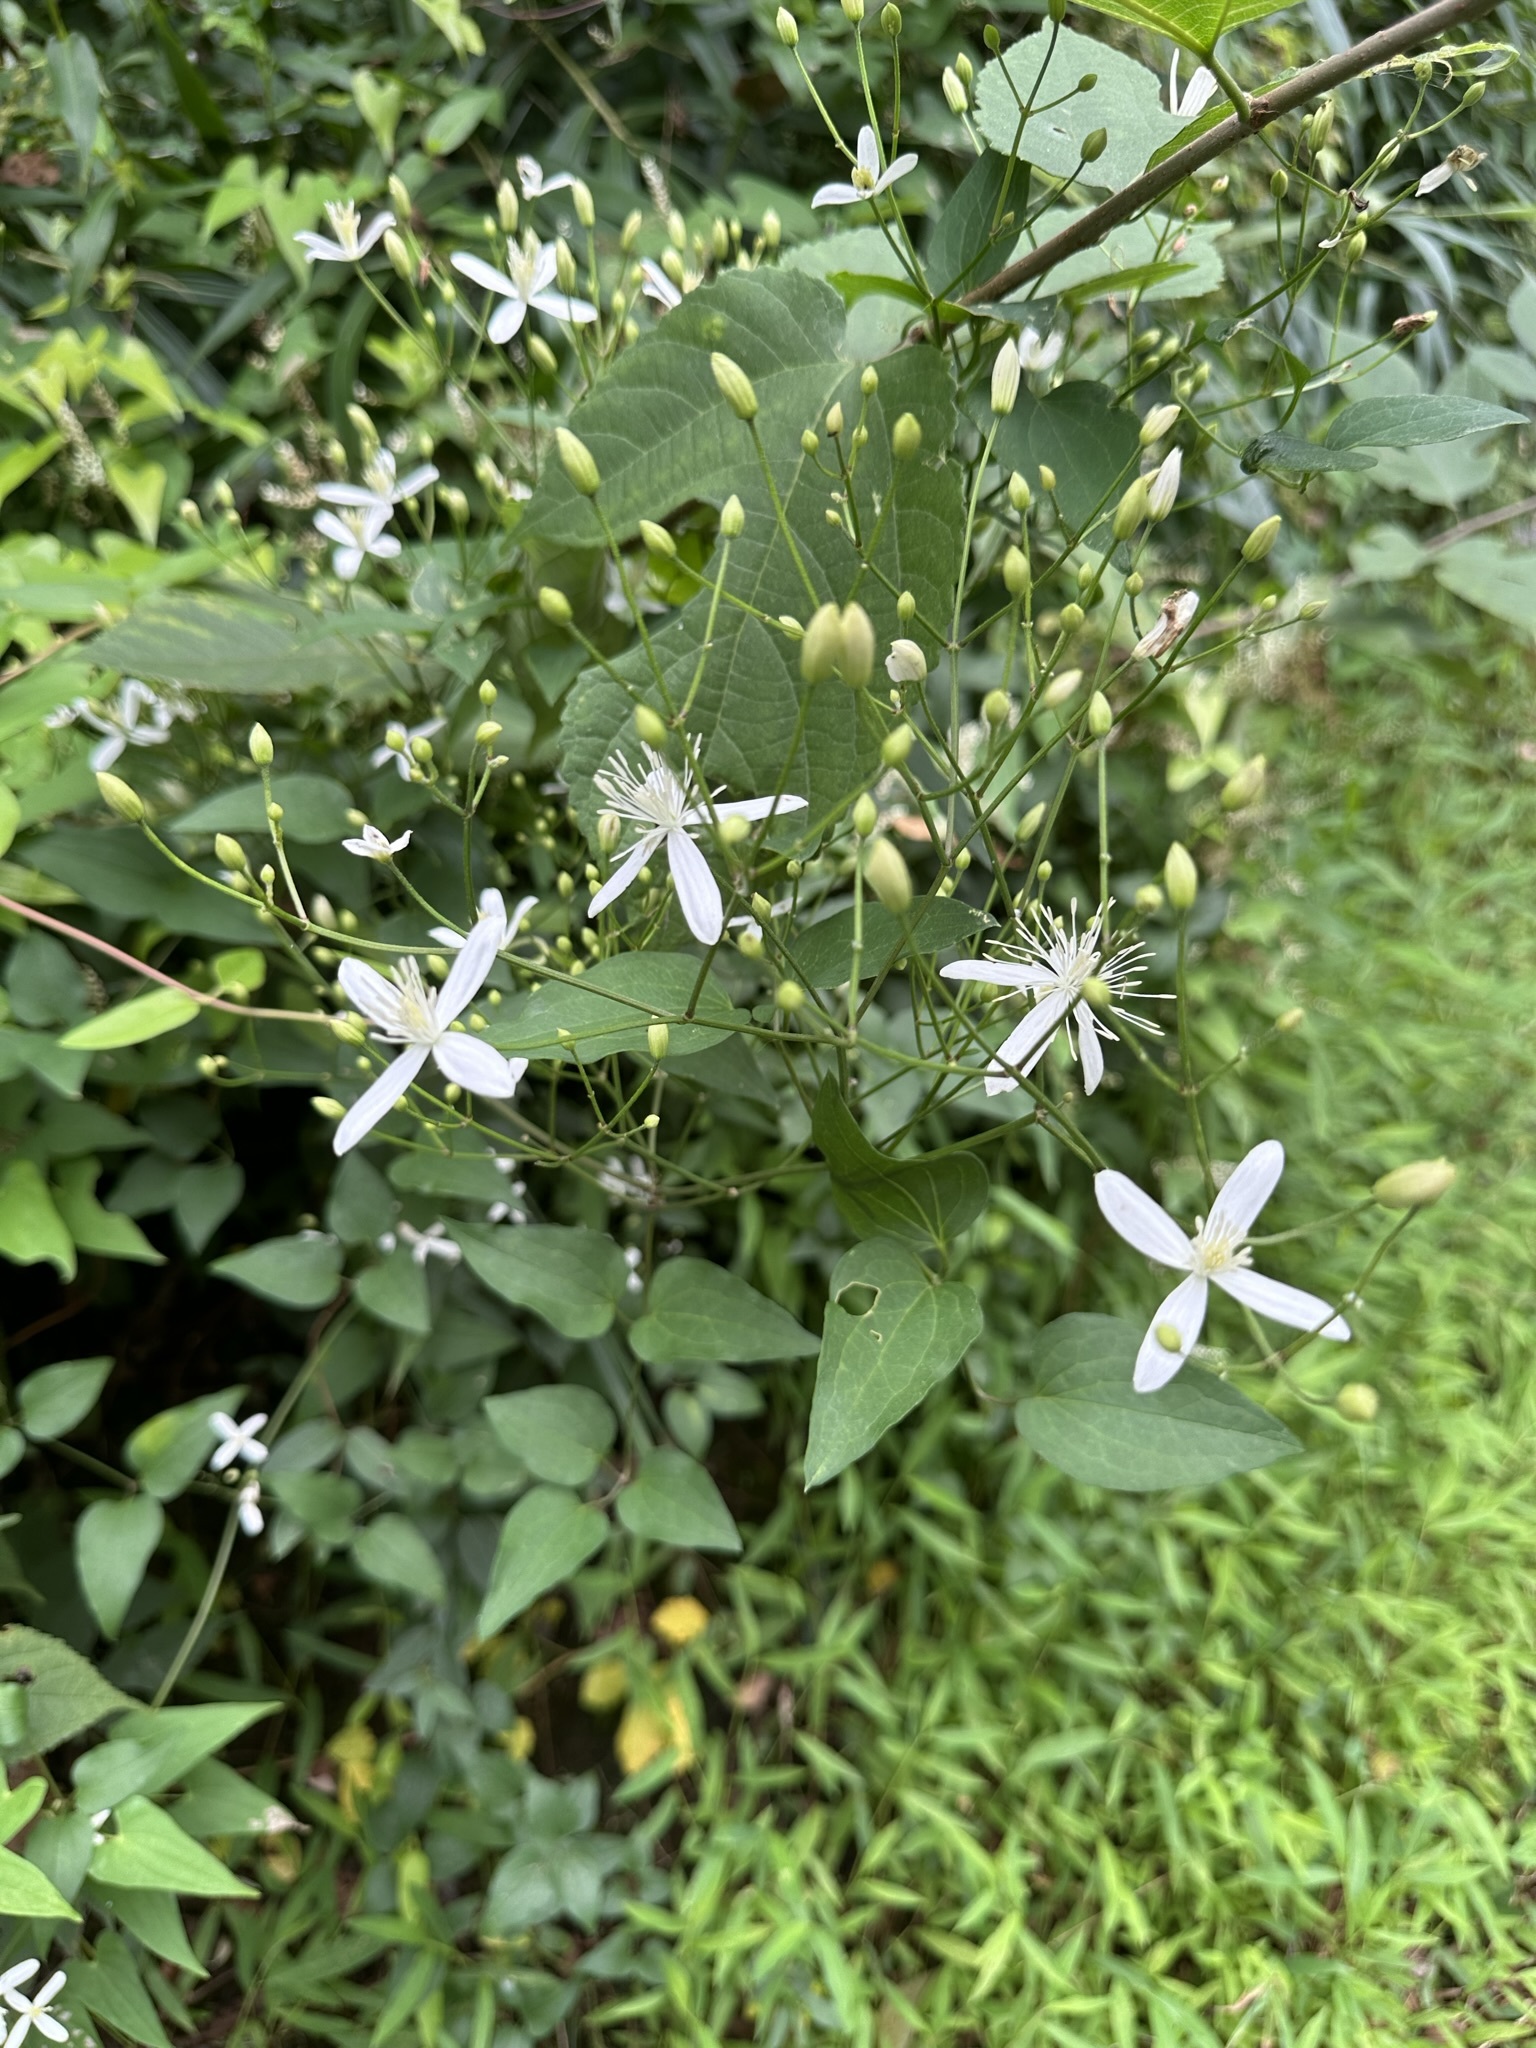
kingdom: Plantae
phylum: Tracheophyta
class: Magnoliopsida
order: Ranunculales
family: Ranunculaceae
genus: Clematis
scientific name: Clematis terniflora
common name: Sweet autumn clematis
